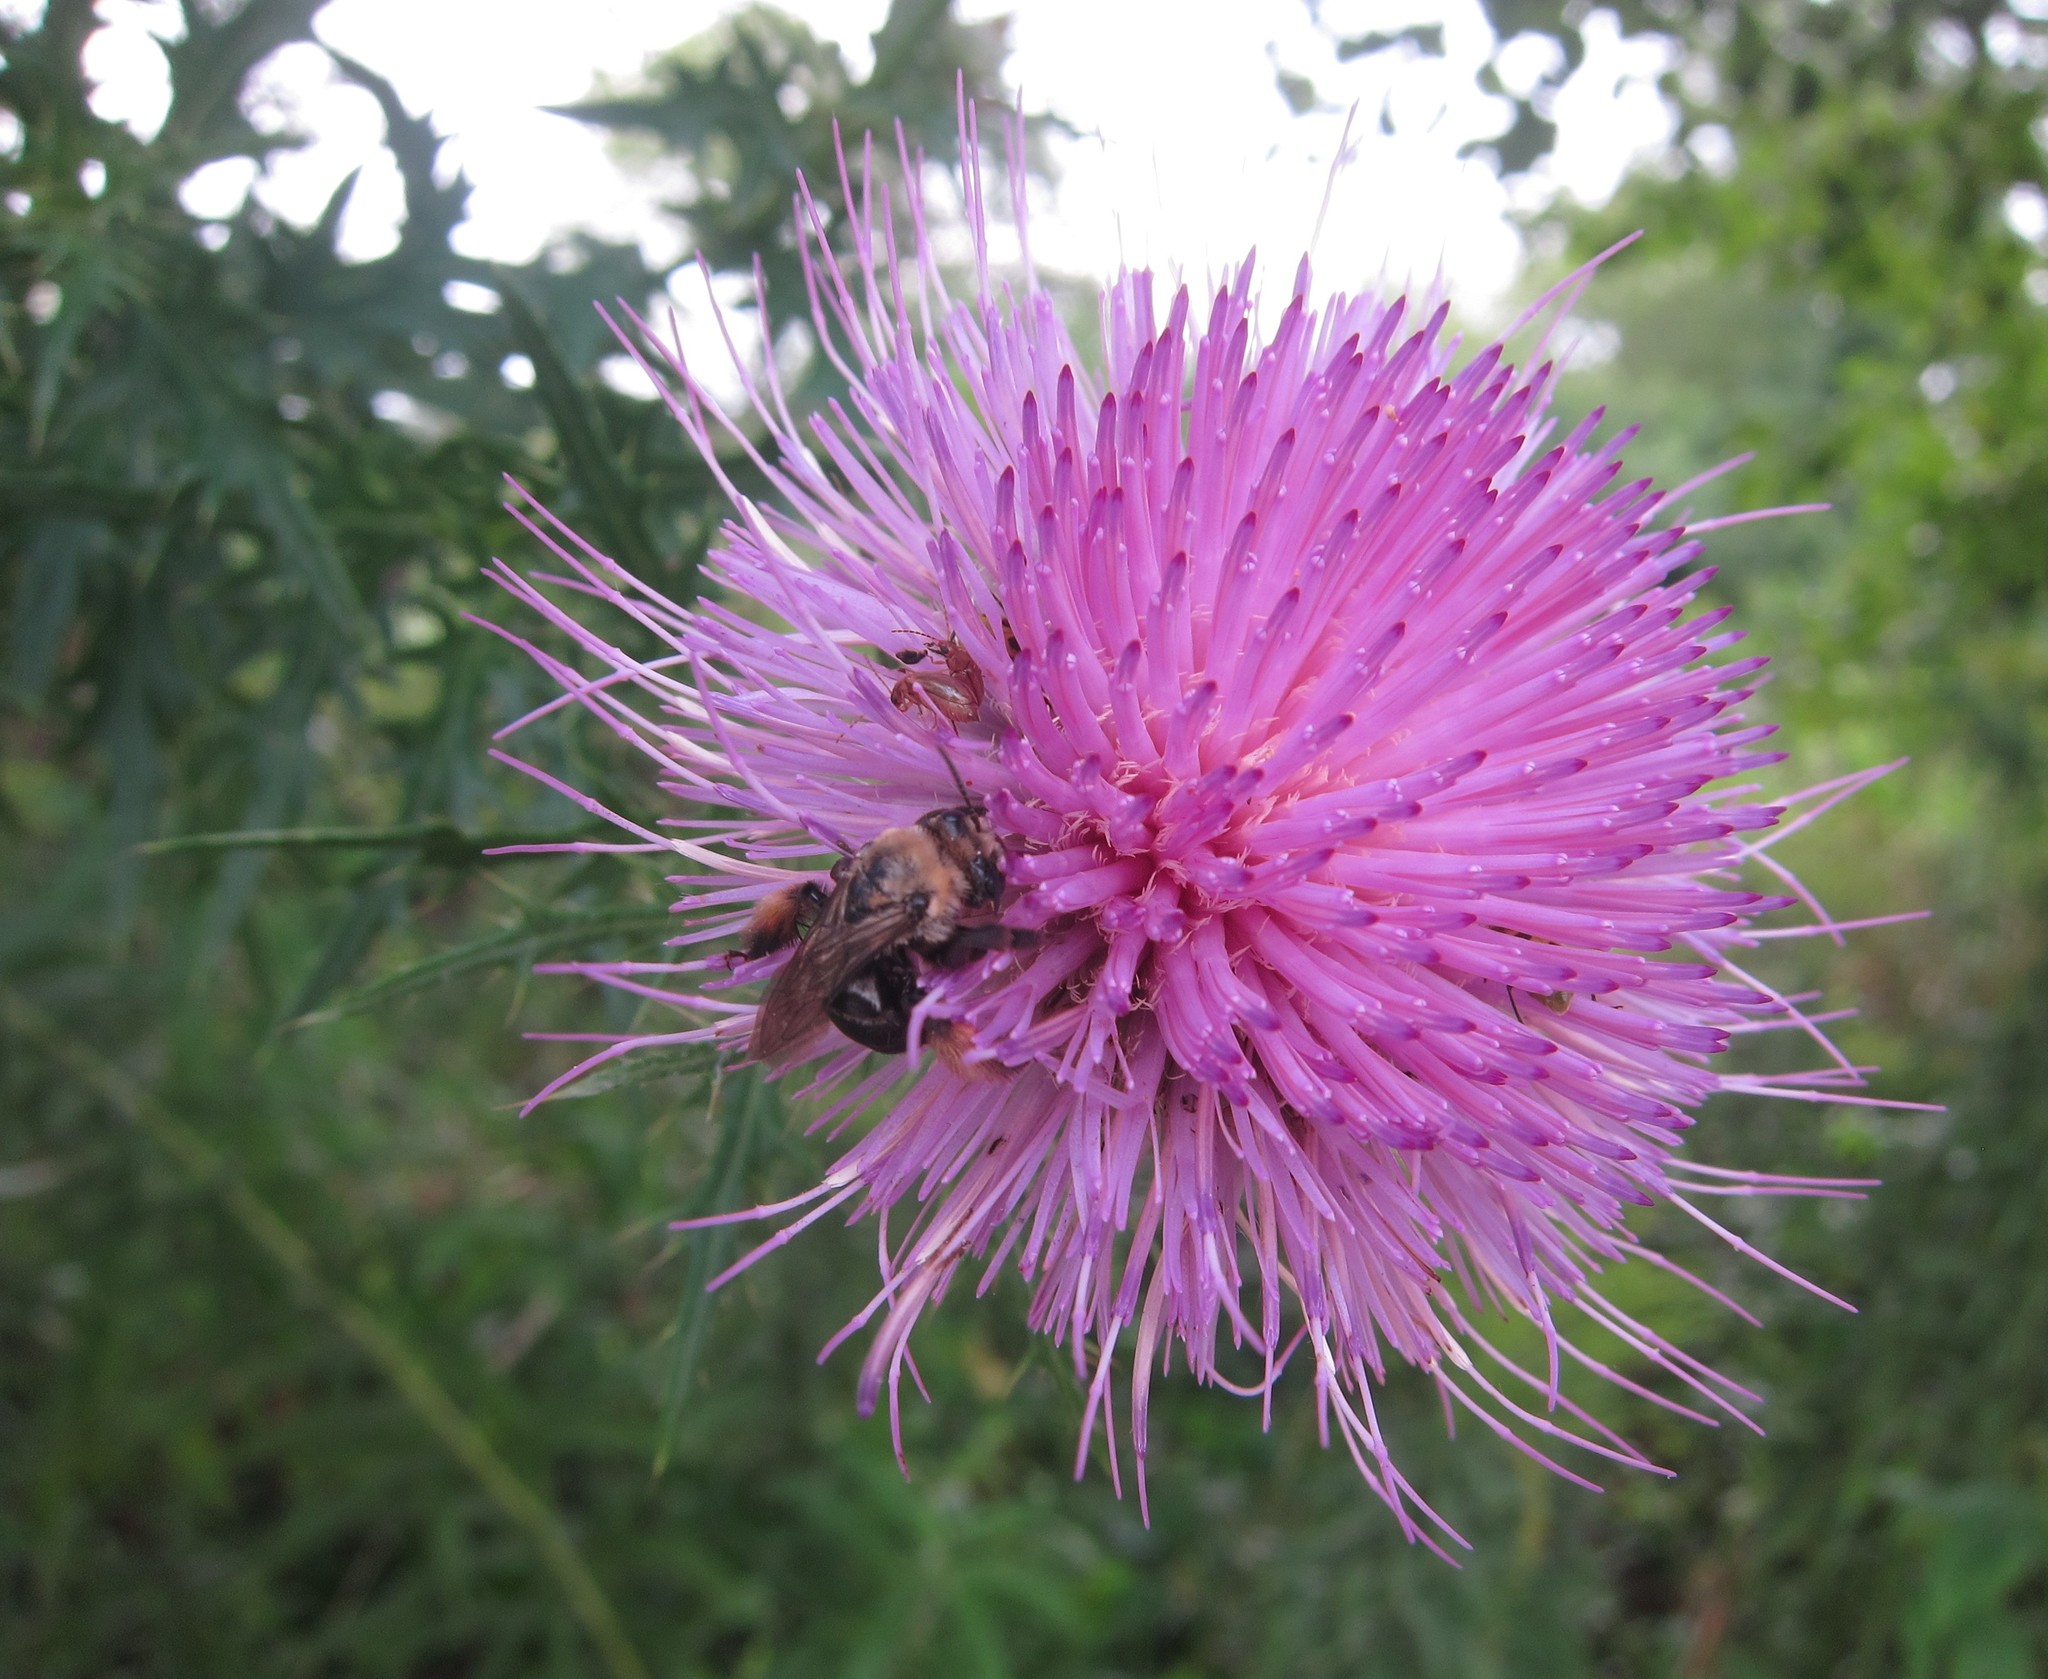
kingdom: Plantae
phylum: Tracheophyta
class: Magnoliopsida
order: Asterales
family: Asteraceae
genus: Cirsium
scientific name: Cirsium discolor
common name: Field thistle
